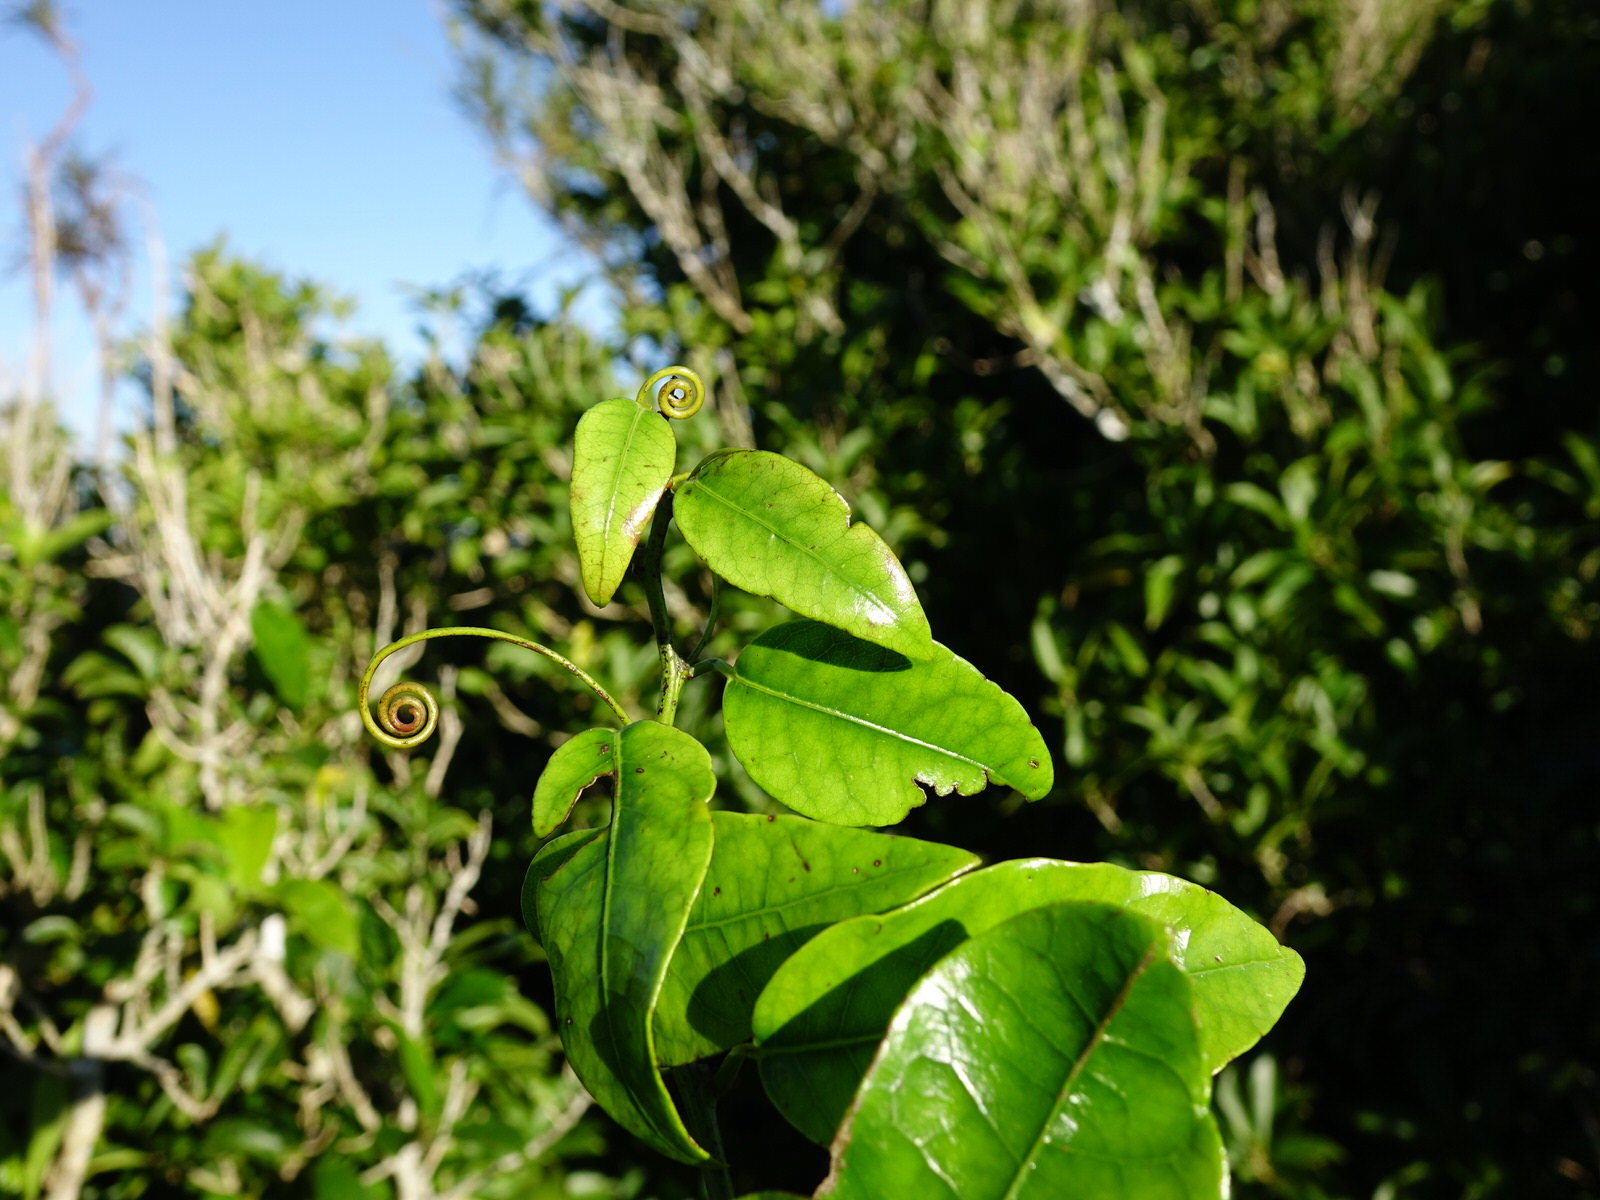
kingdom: Plantae
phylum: Tracheophyta
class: Magnoliopsida
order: Malpighiales
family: Passifloraceae
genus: Passiflora
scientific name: Passiflora tetrandra
